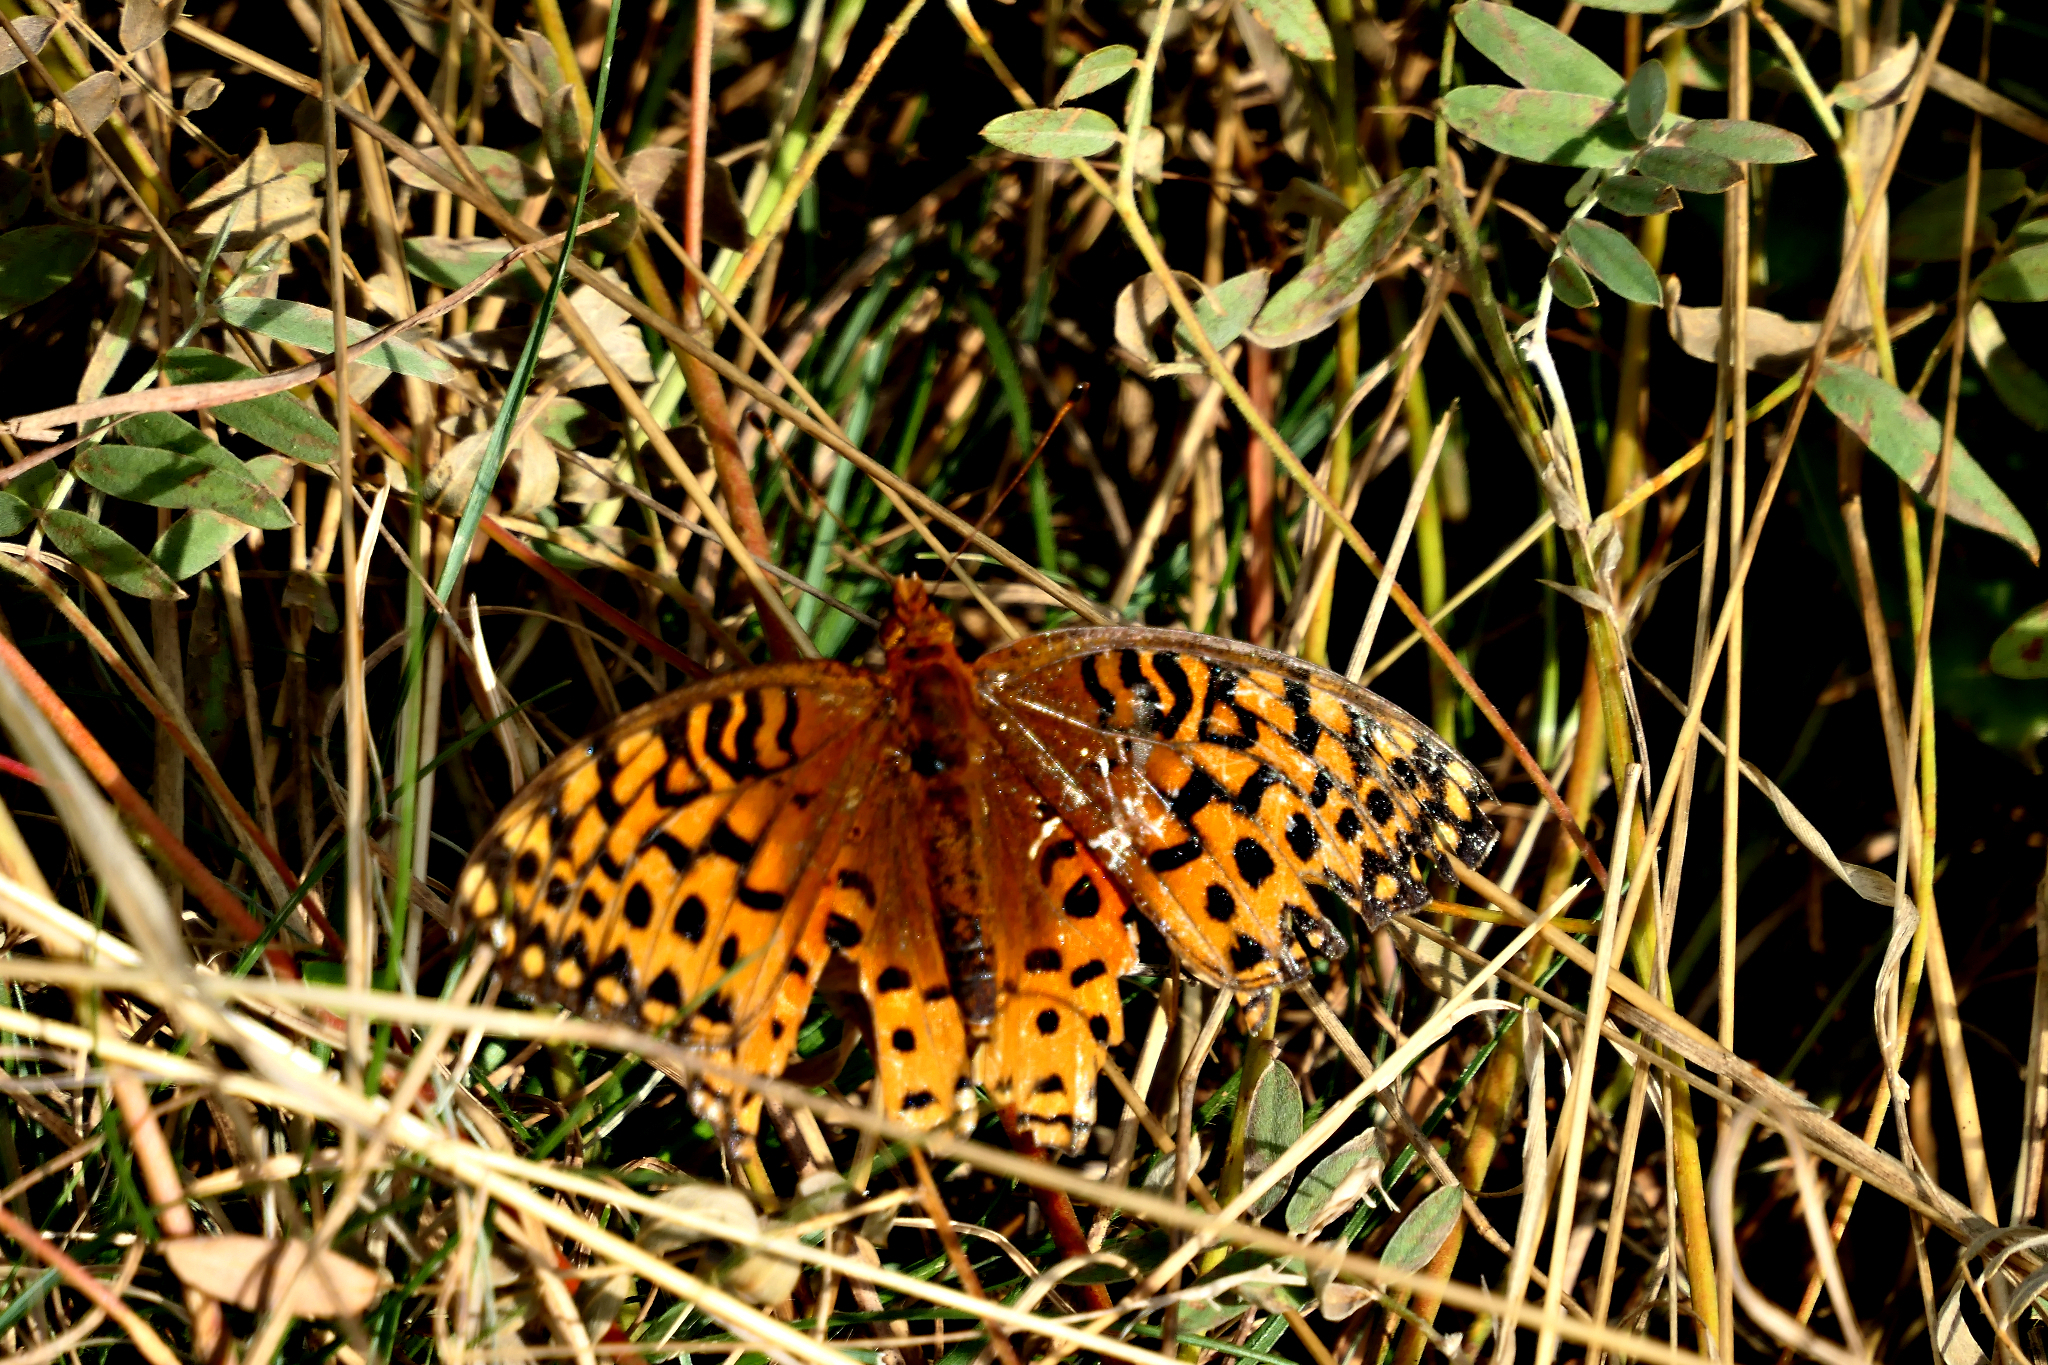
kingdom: Animalia
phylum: Arthropoda
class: Insecta
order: Lepidoptera
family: Nymphalidae
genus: Speyeria
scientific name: Speyeria aphrodite
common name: Aphrodite friitllary
